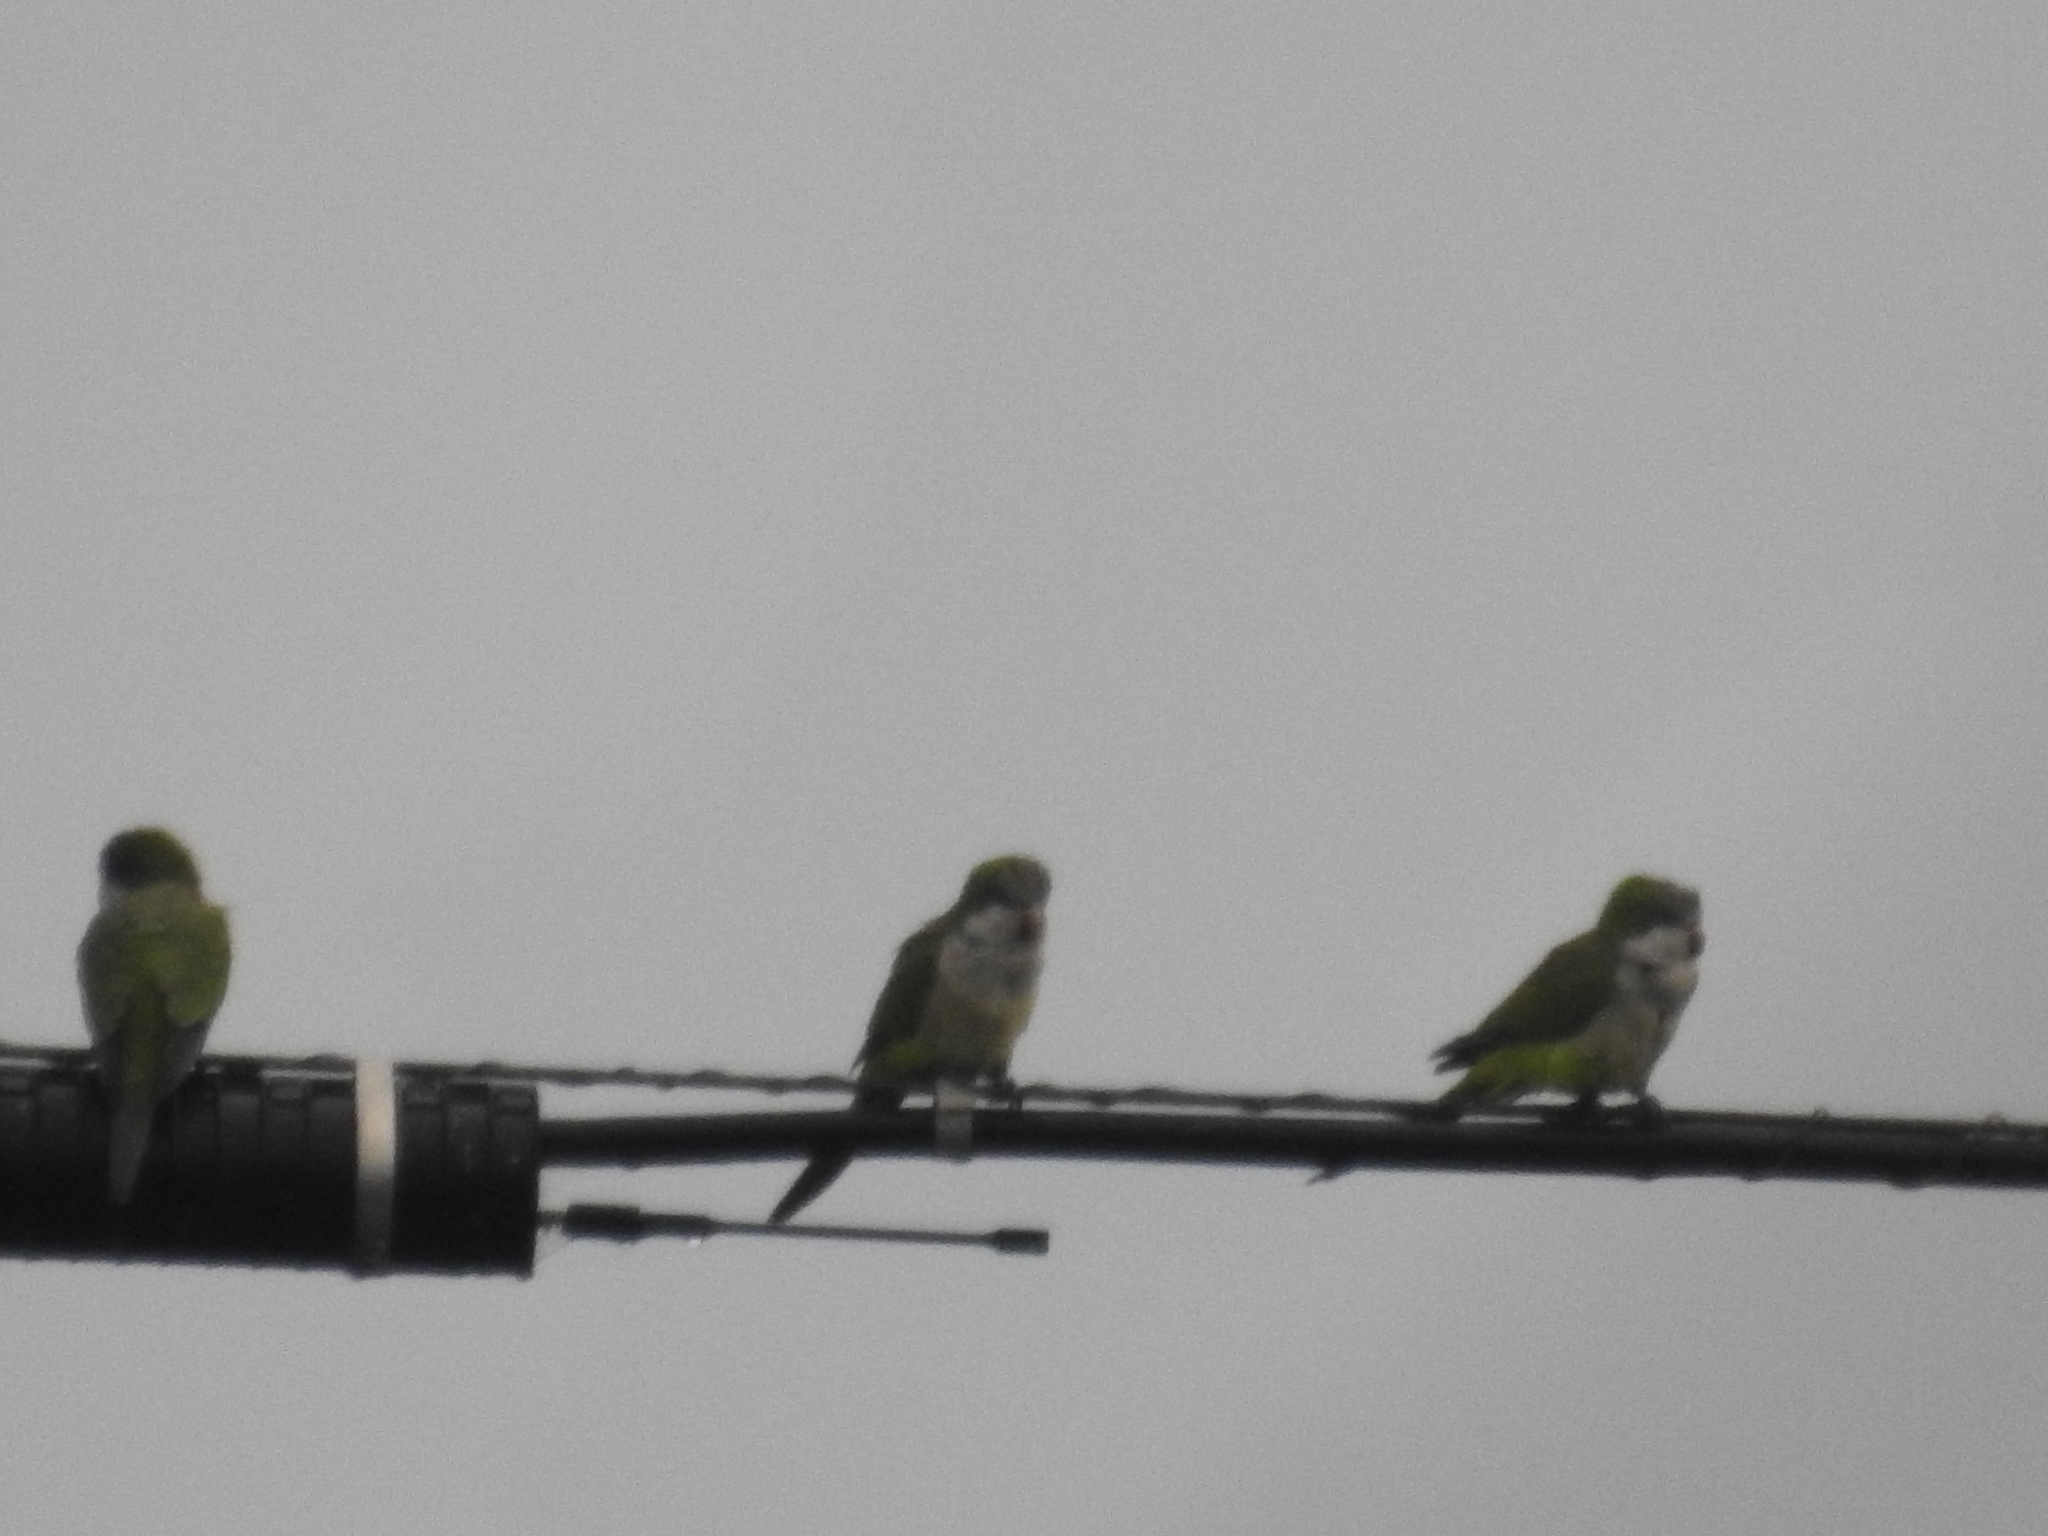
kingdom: Animalia
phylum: Chordata
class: Aves
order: Psittaciformes
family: Psittacidae
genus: Myiopsitta
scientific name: Myiopsitta monachus
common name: Monk parakeet
